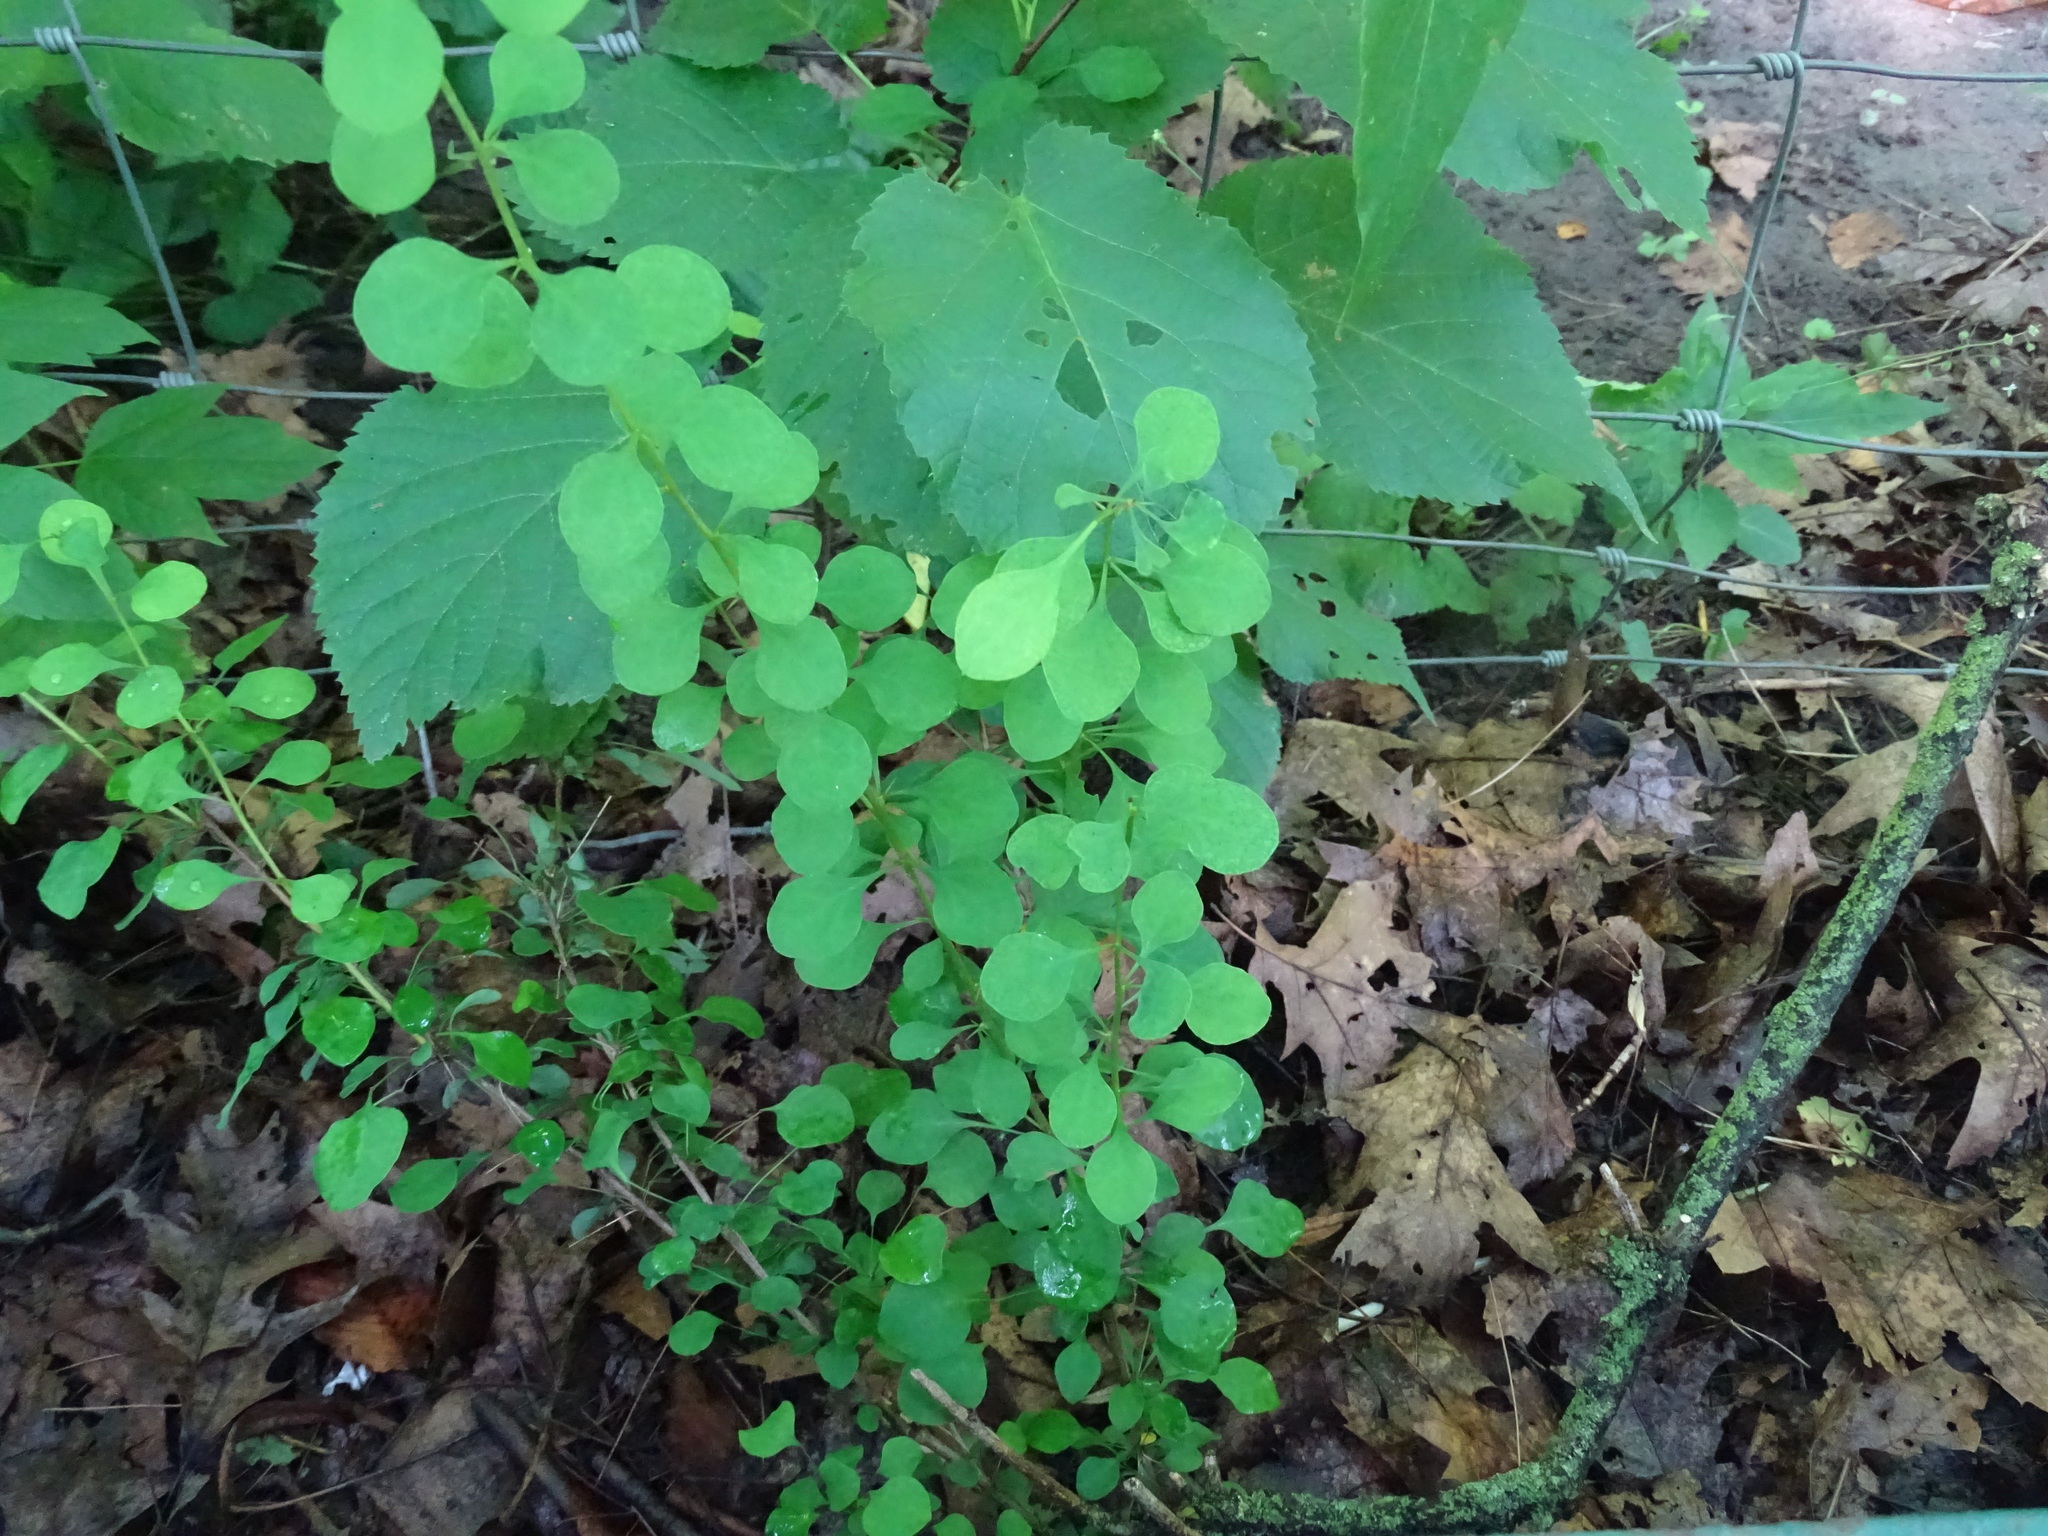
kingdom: Plantae
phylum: Tracheophyta
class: Magnoliopsida
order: Ranunculales
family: Berberidaceae
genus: Berberis
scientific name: Berberis thunbergii
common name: Japanese barberry
